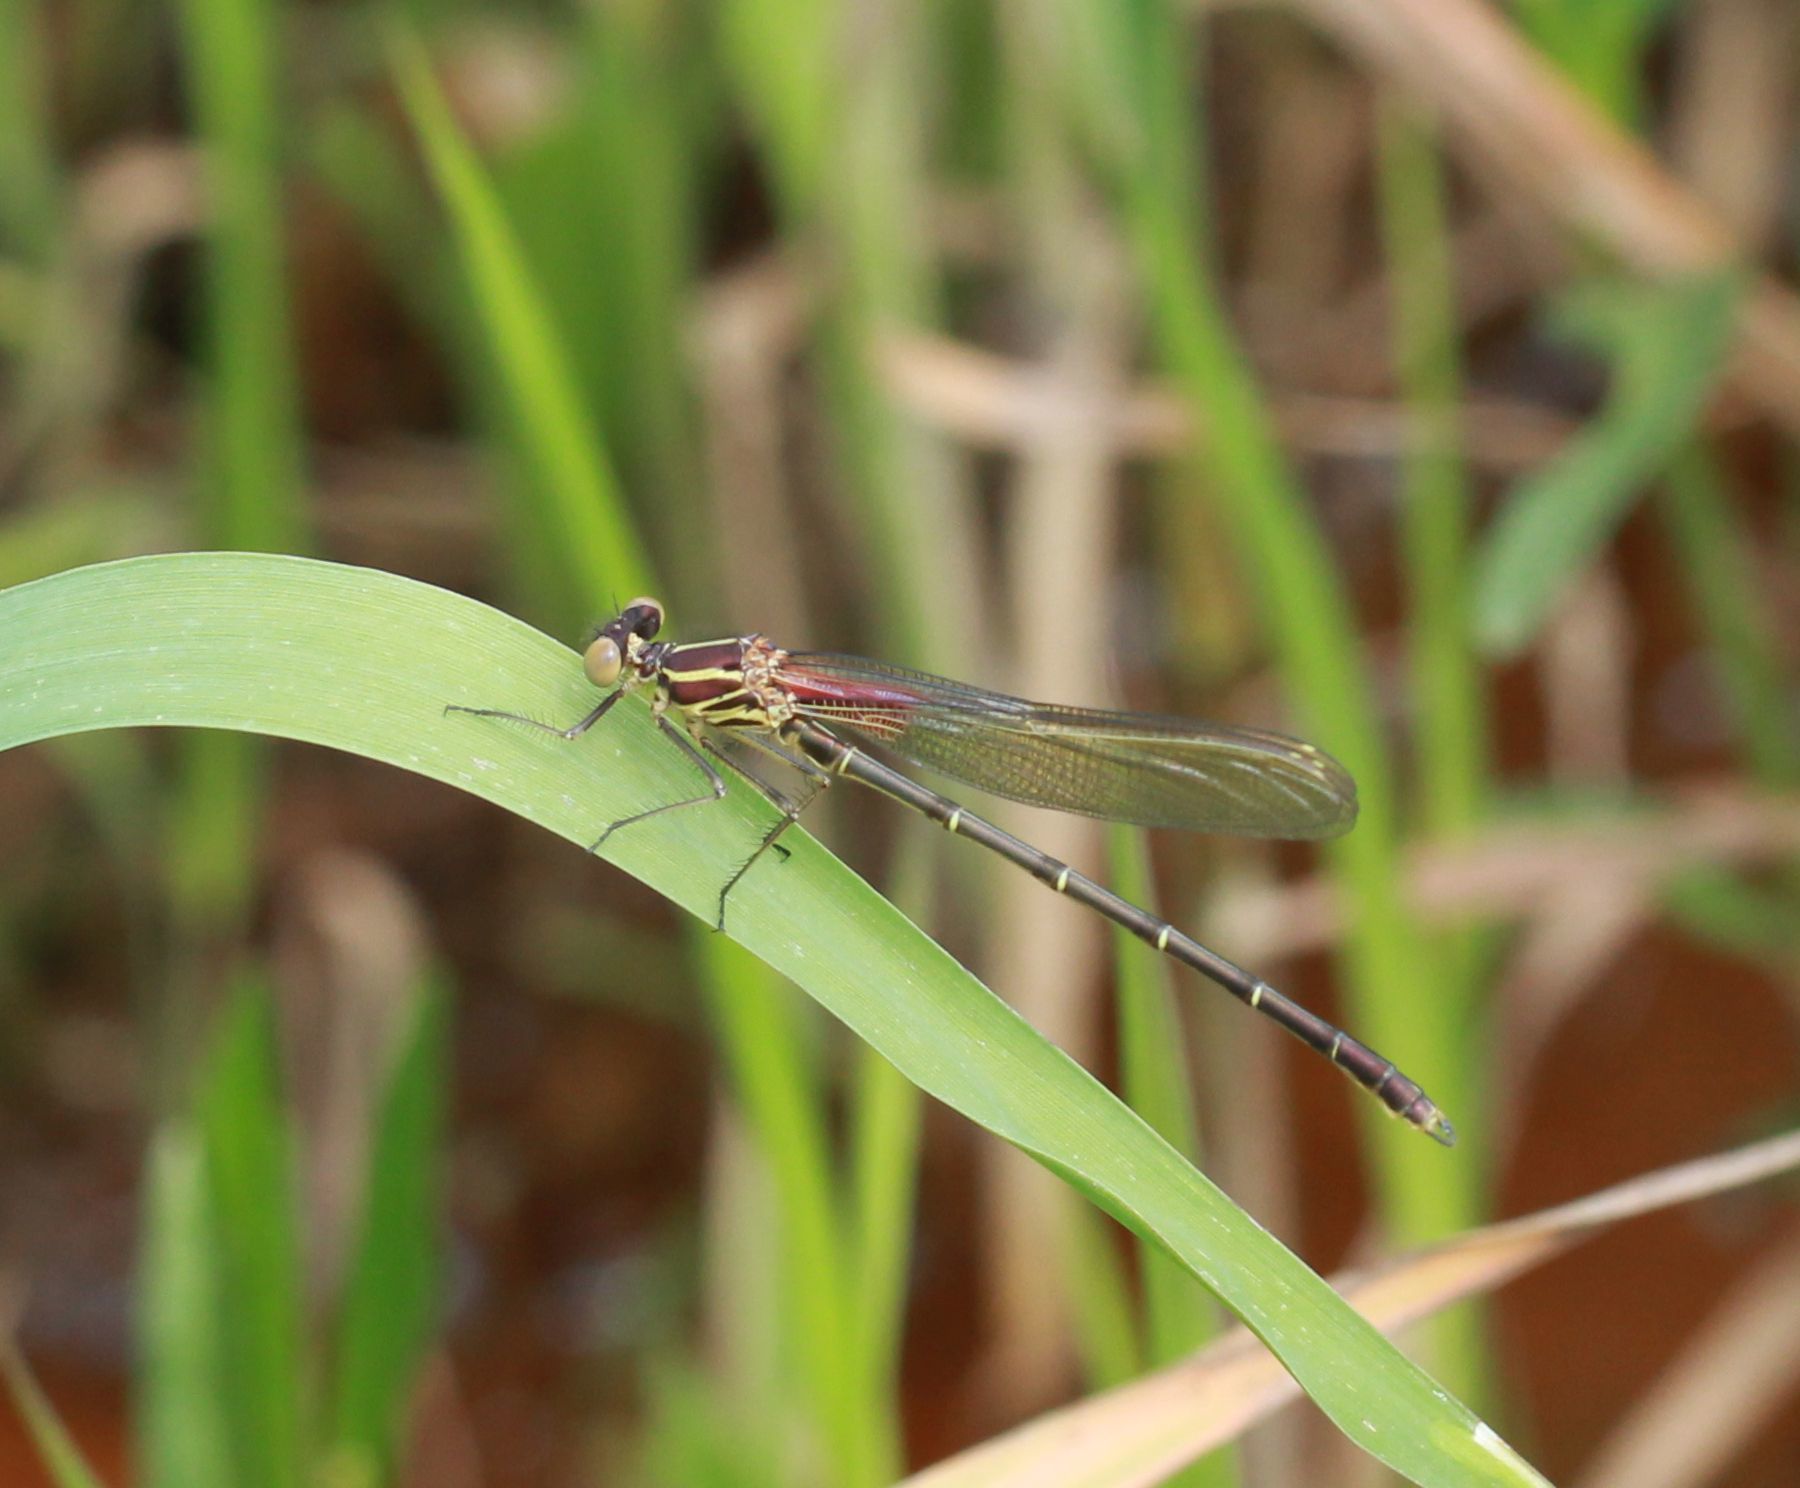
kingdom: Animalia
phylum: Arthropoda
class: Insecta
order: Odonata
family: Calopterygidae
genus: Hetaerina
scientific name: Hetaerina americana
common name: American rubyspot
